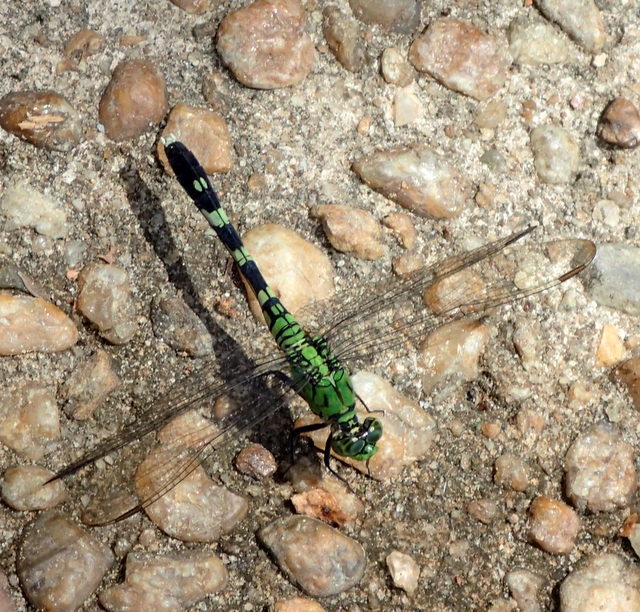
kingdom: Animalia
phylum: Arthropoda
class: Insecta
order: Odonata
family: Libellulidae
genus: Erythemis
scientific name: Erythemis simplicicollis
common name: Eastern pondhawk
